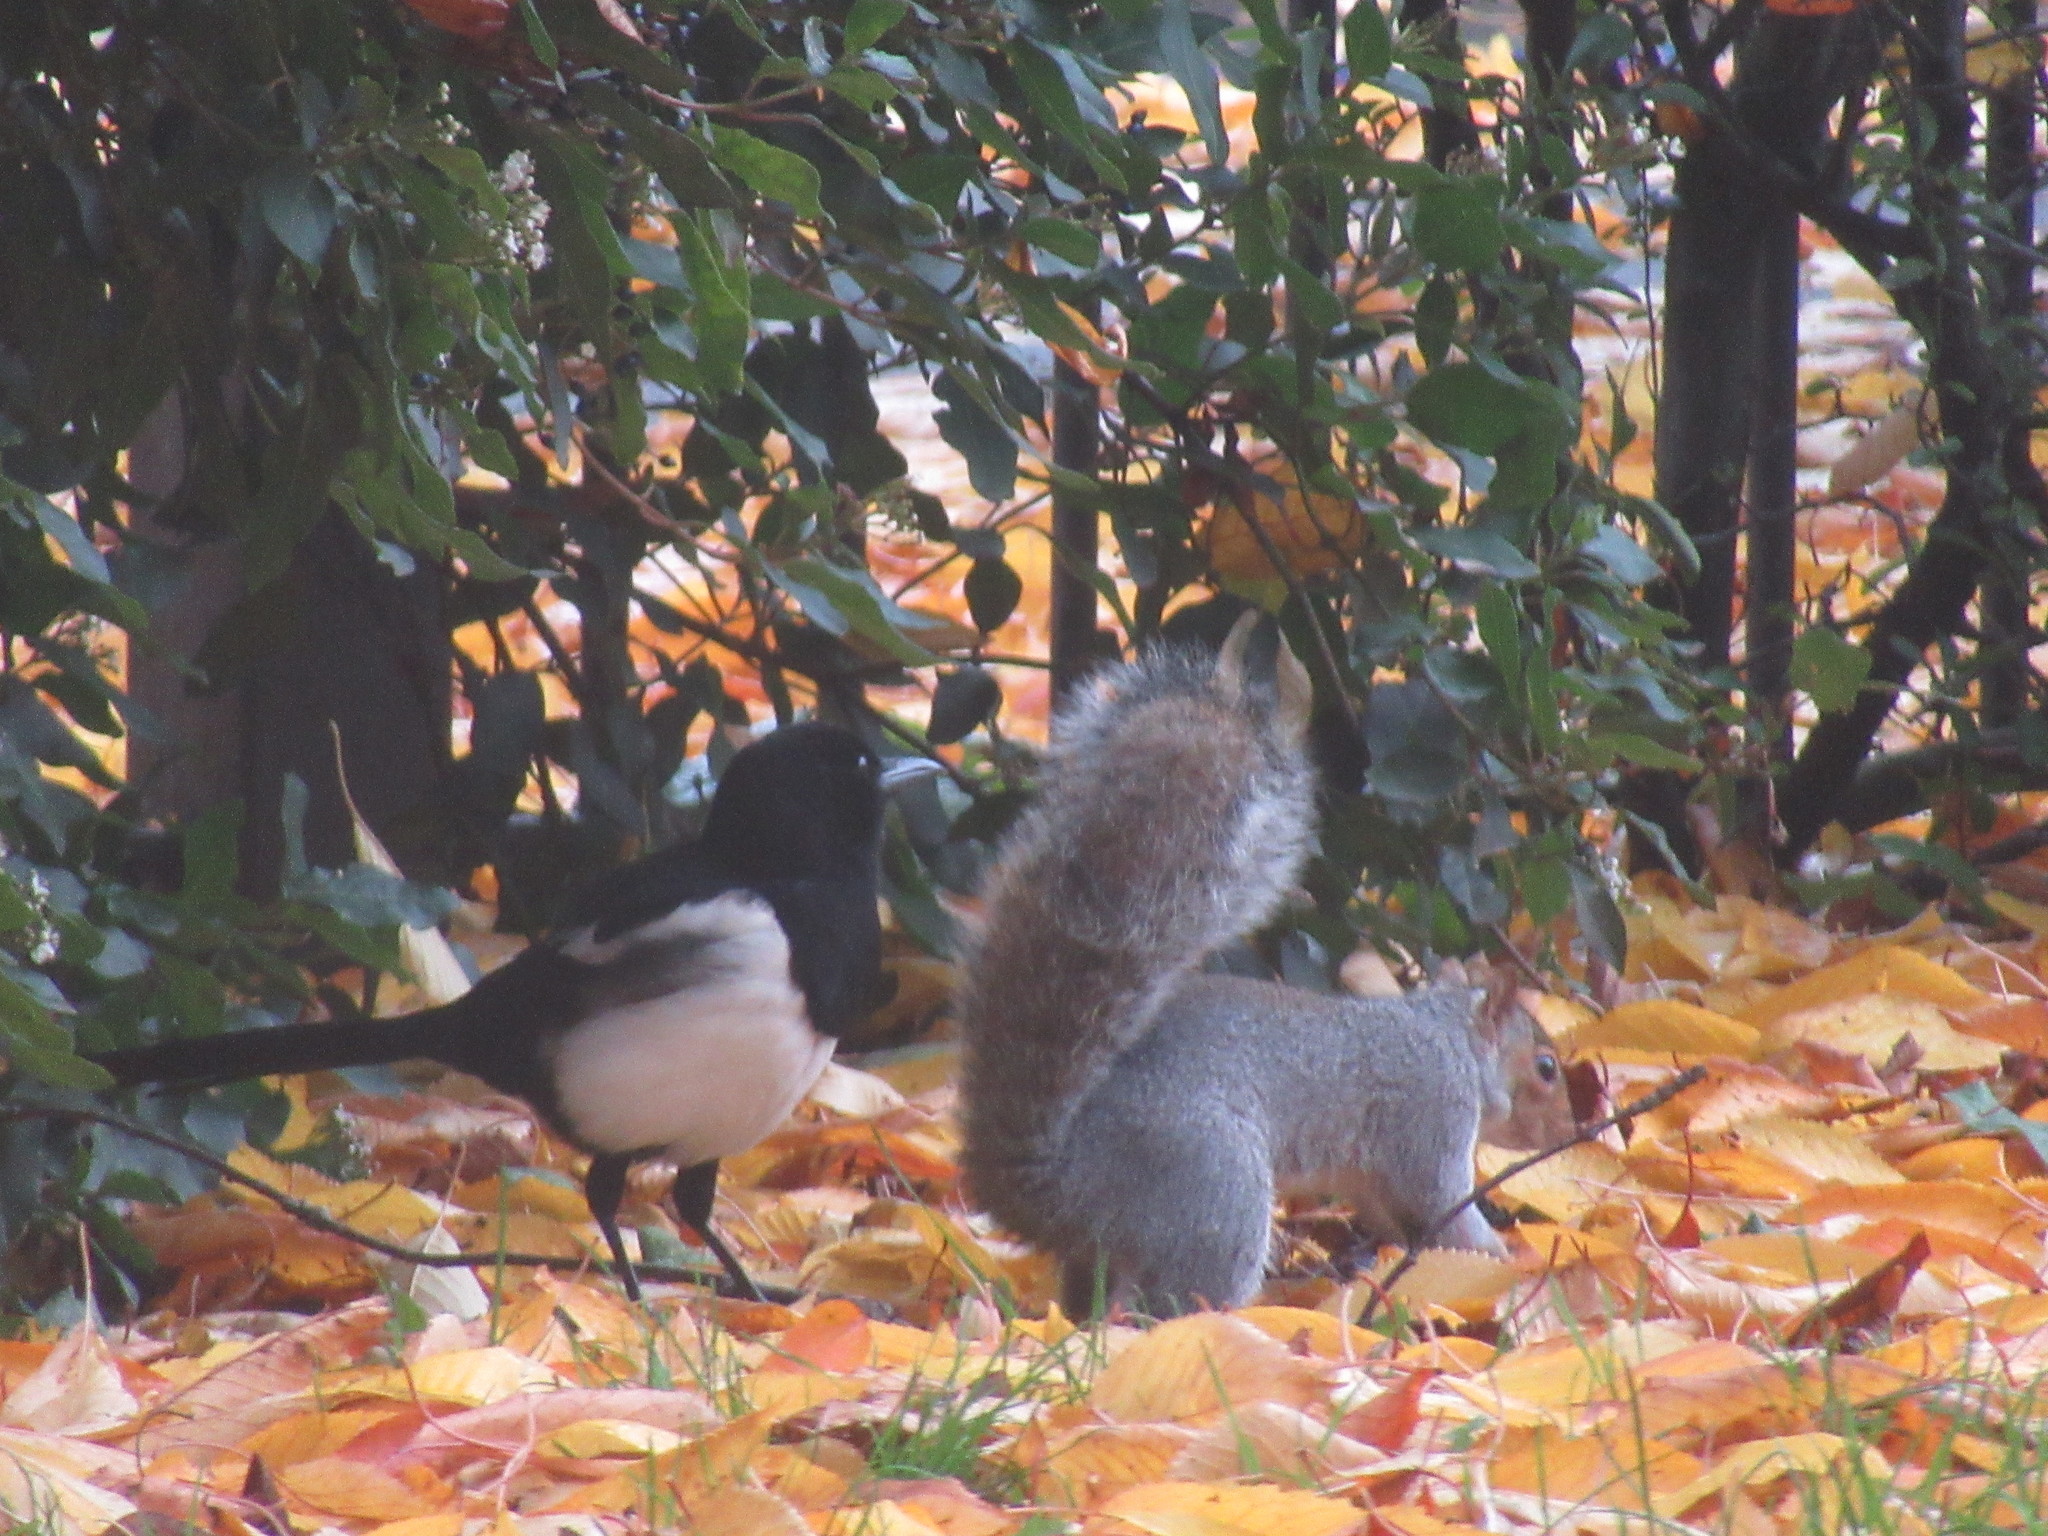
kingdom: Animalia
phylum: Chordata
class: Mammalia
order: Rodentia
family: Sciuridae
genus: Sciurus
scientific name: Sciurus carolinensis
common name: Eastern gray squirrel
